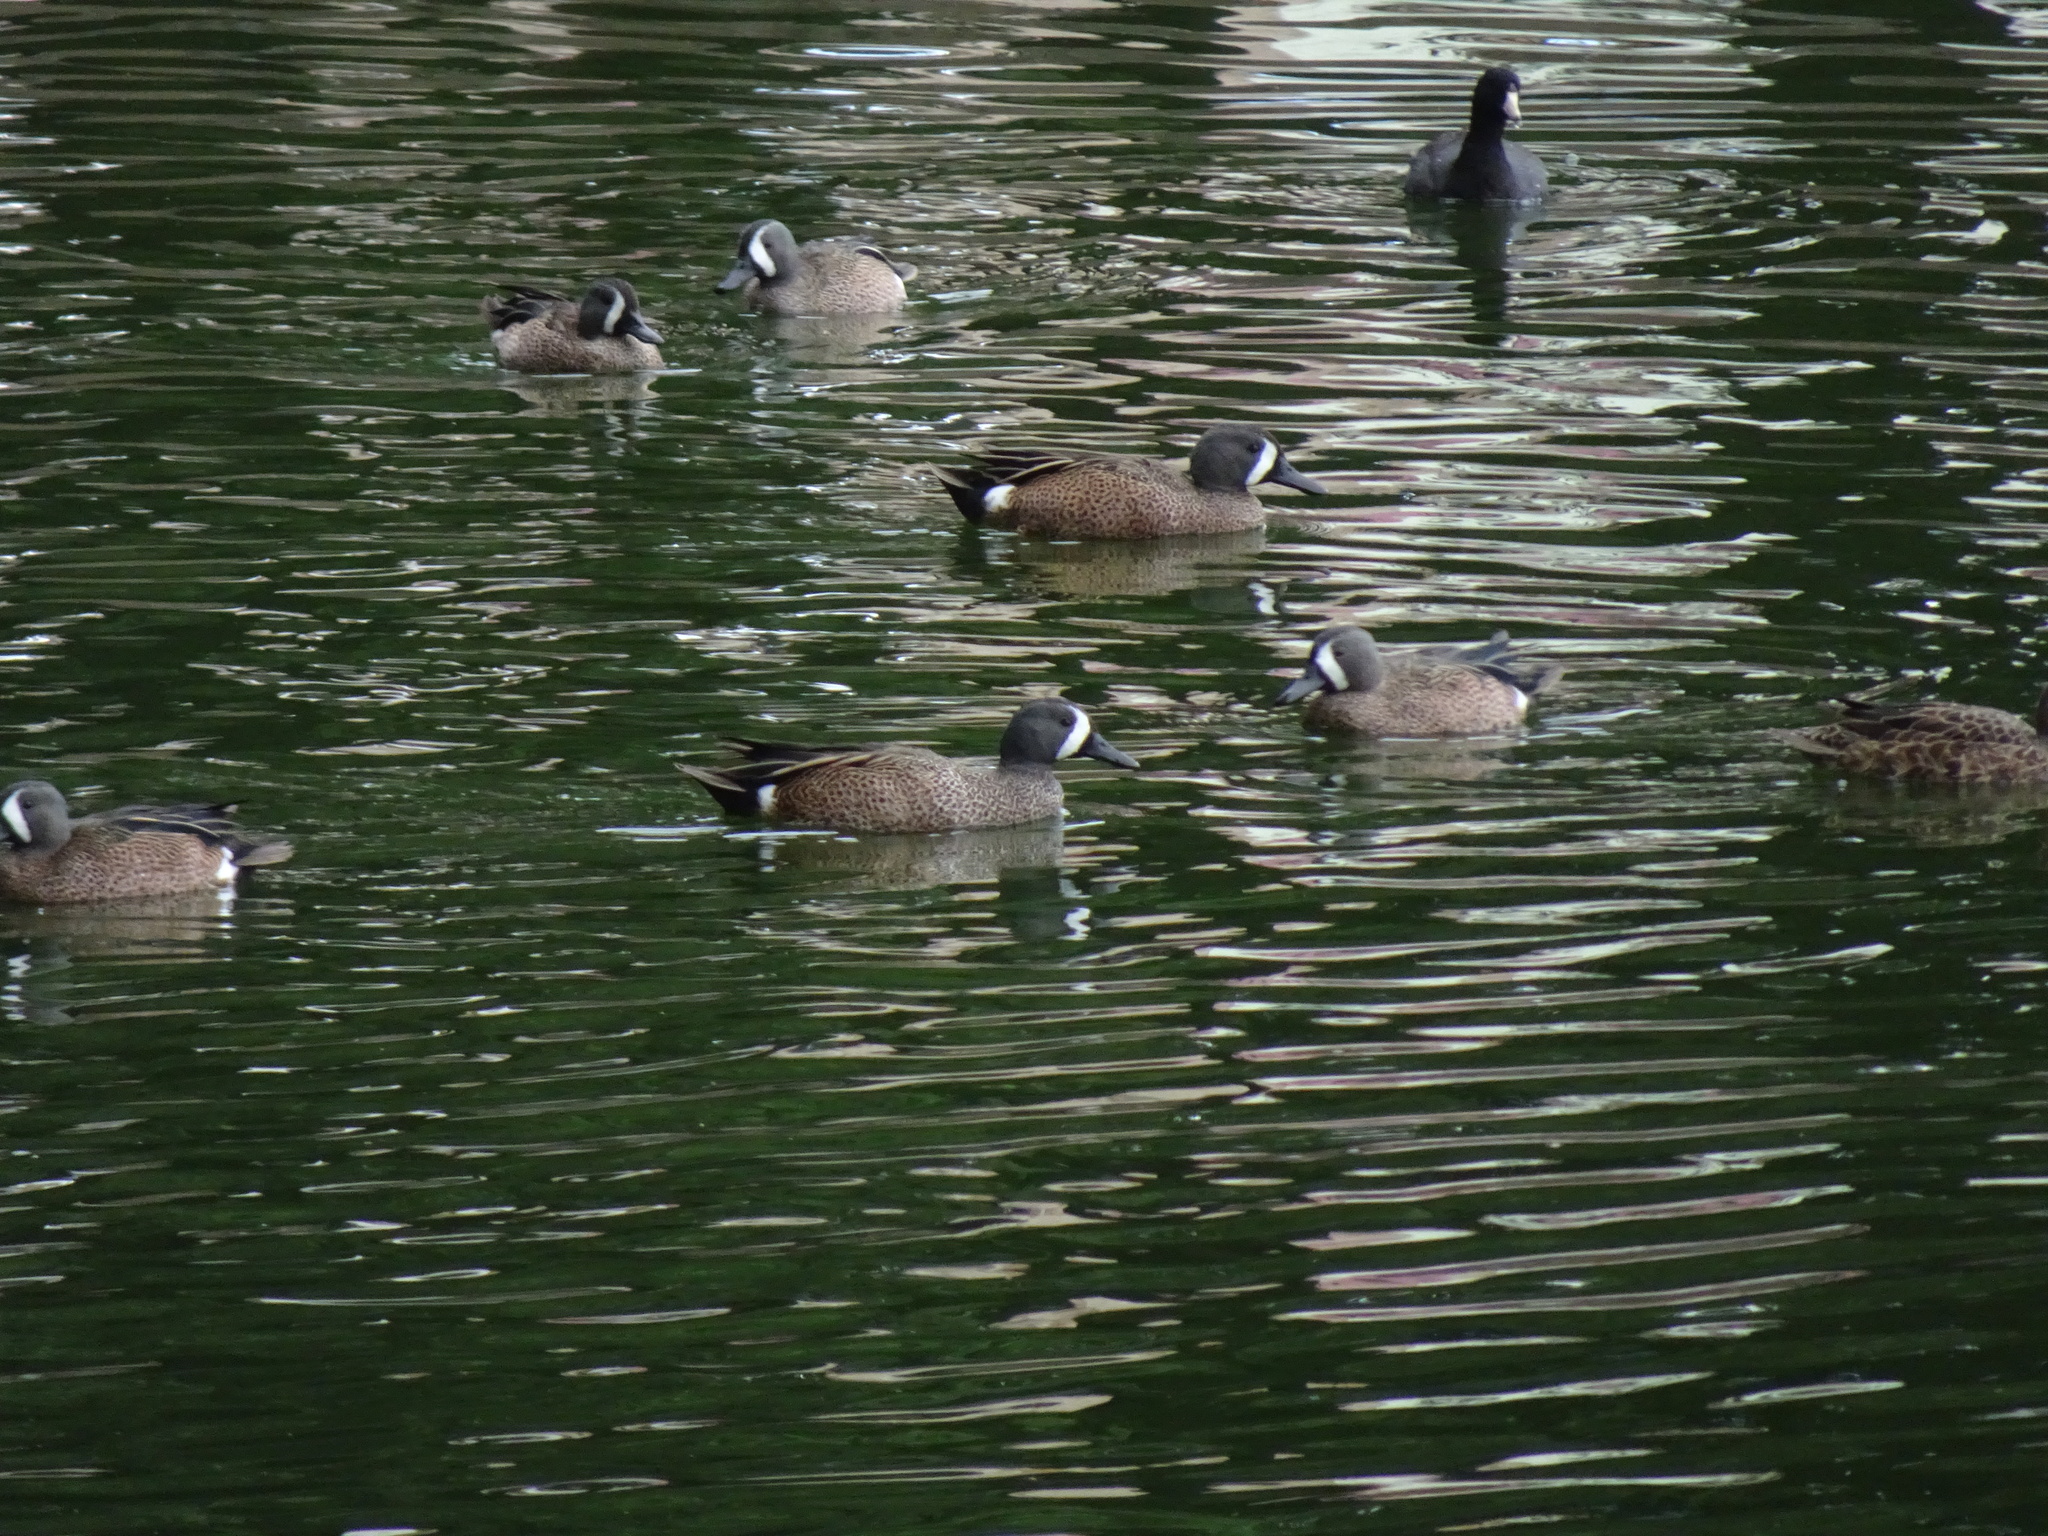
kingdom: Animalia
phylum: Chordata
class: Aves
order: Anseriformes
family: Anatidae
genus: Spatula
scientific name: Spatula discors
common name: Blue-winged teal
